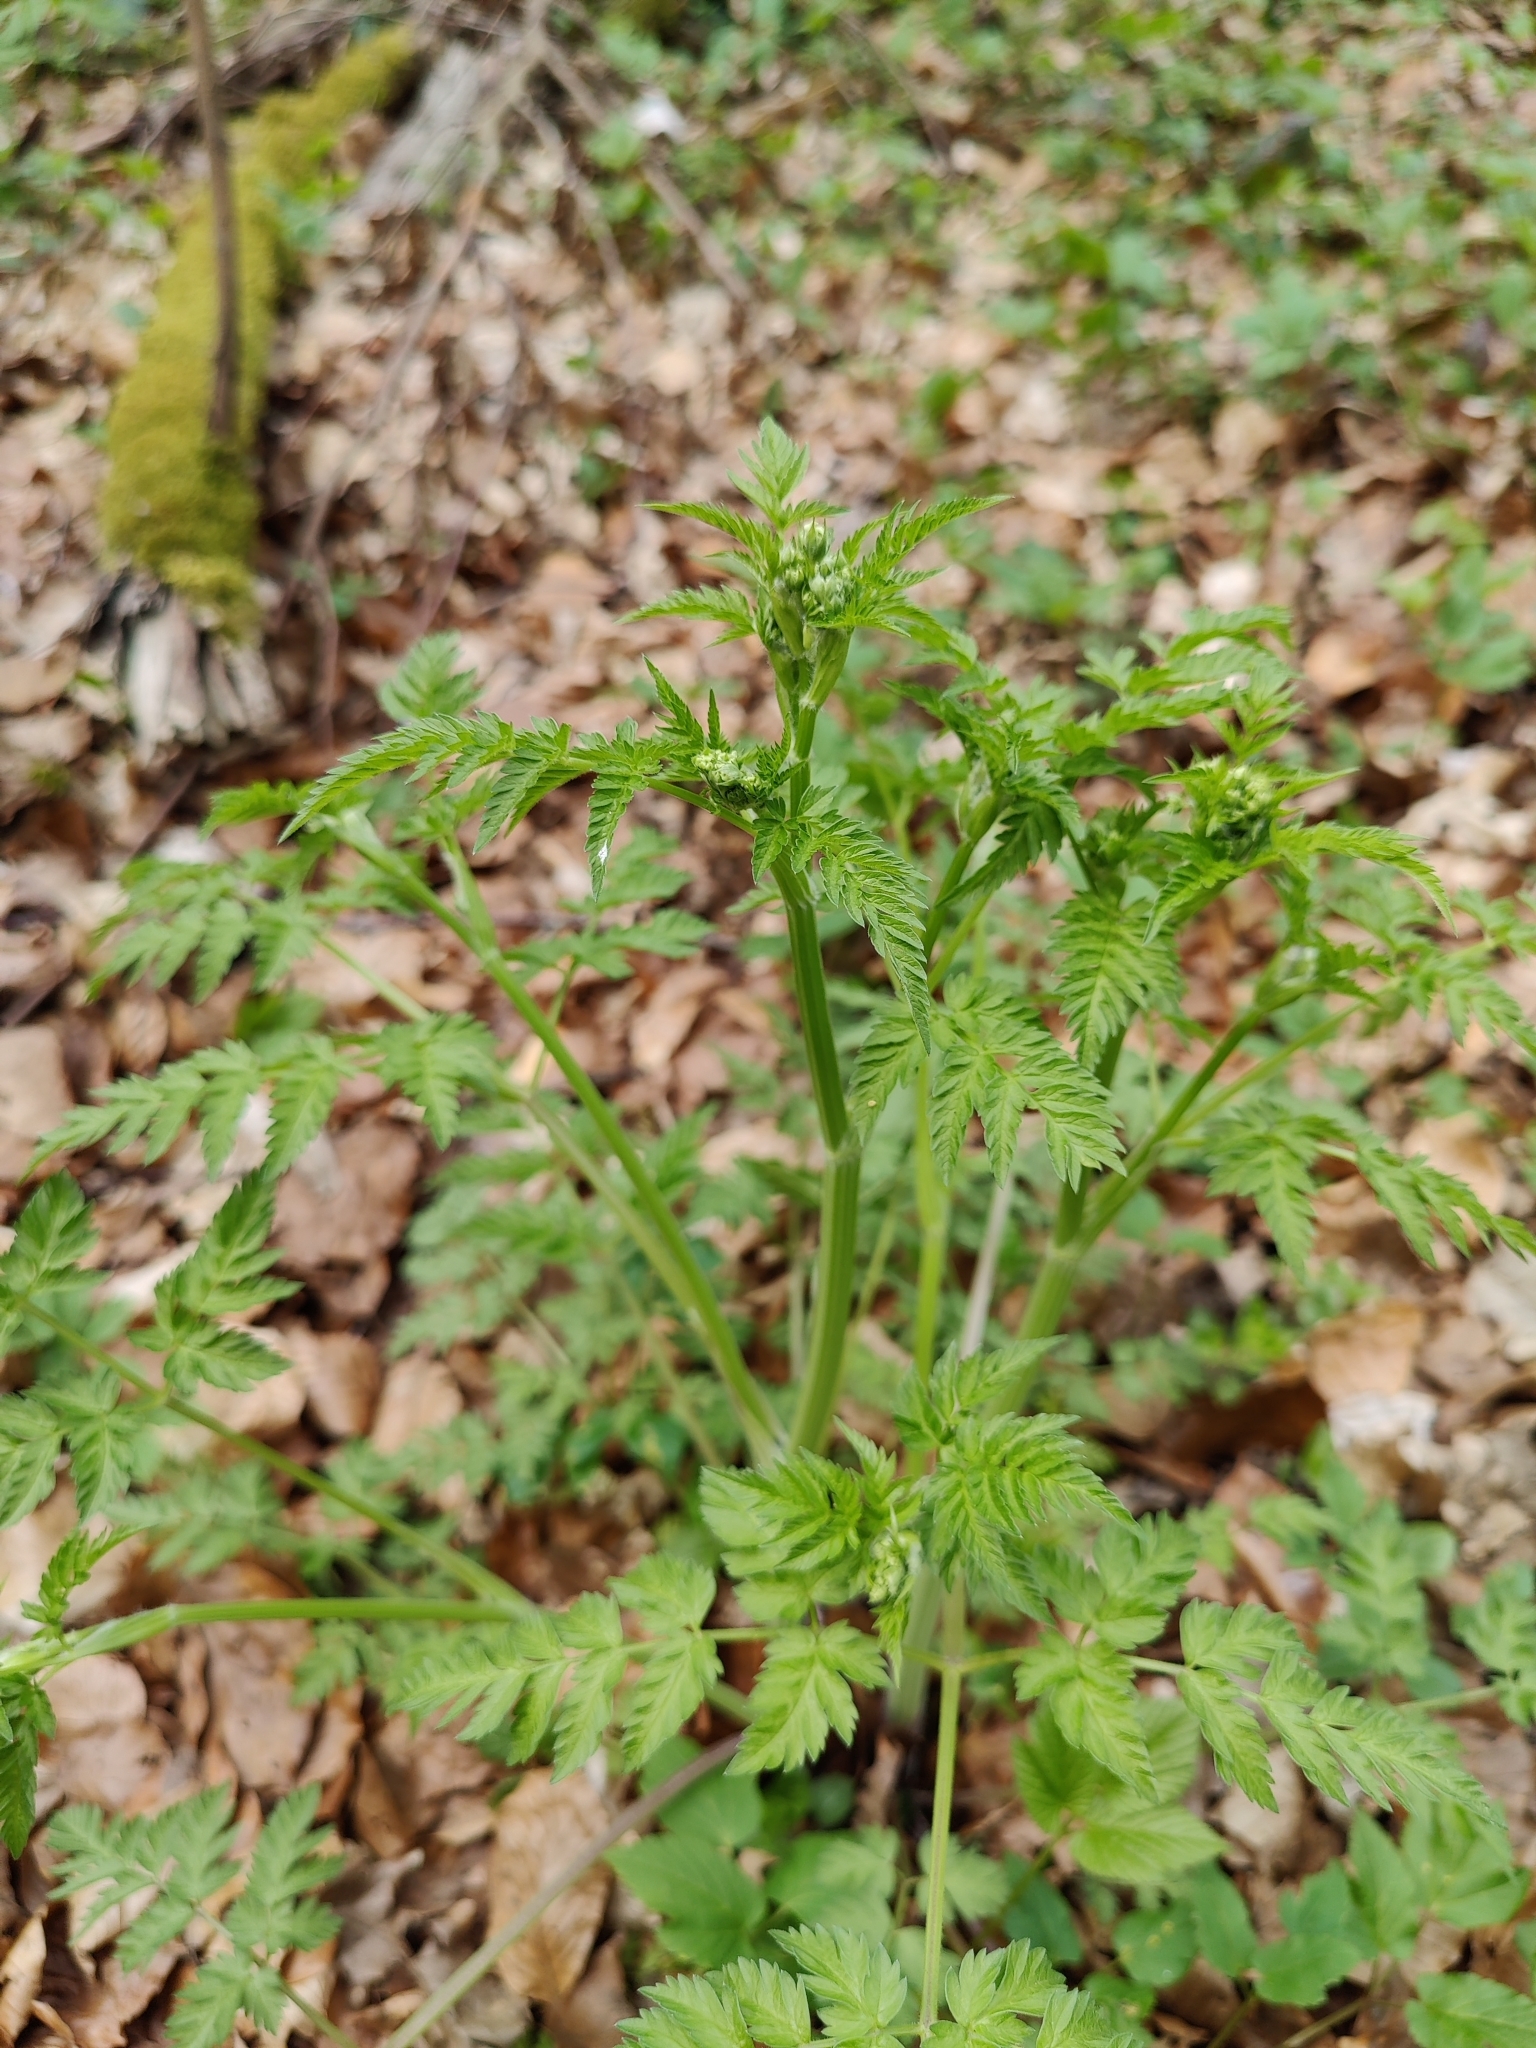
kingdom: Plantae
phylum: Tracheophyta
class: Magnoliopsida
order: Apiales
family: Apiaceae
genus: Anthriscus
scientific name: Anthriscus sylvestris
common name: Cow parsley
